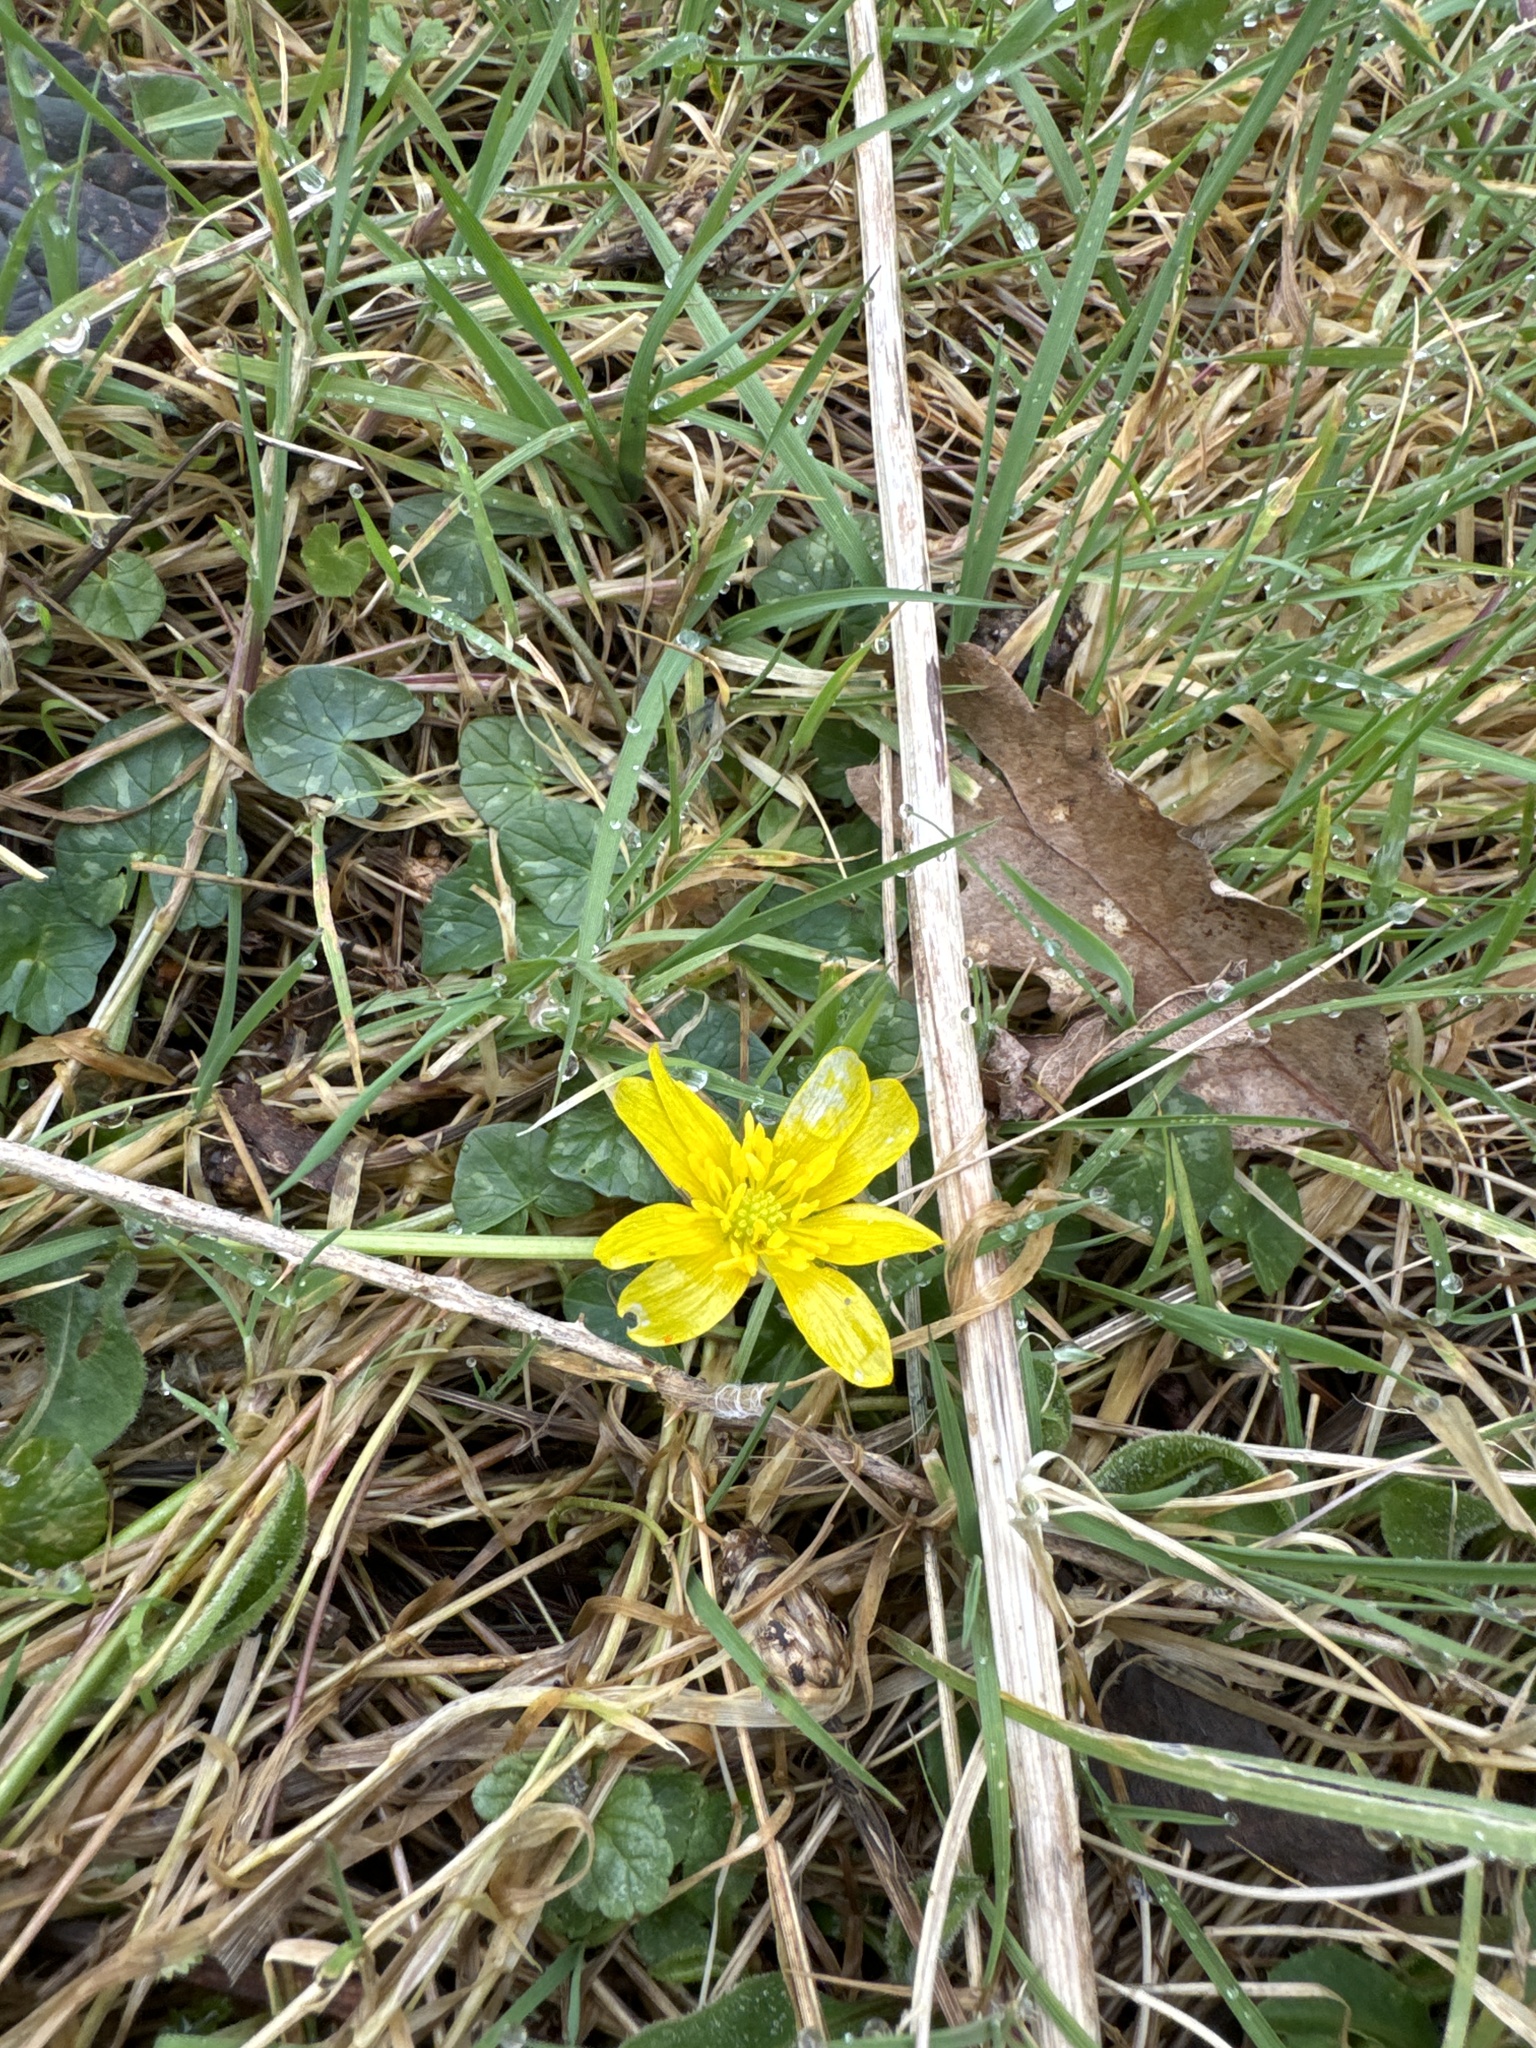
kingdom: Plantae
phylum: Tracheophyta
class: Magnoliopsida
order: Ranunculales
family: Ranunculaceae
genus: Ficaria
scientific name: Ficaria verna
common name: Lesser celandine
